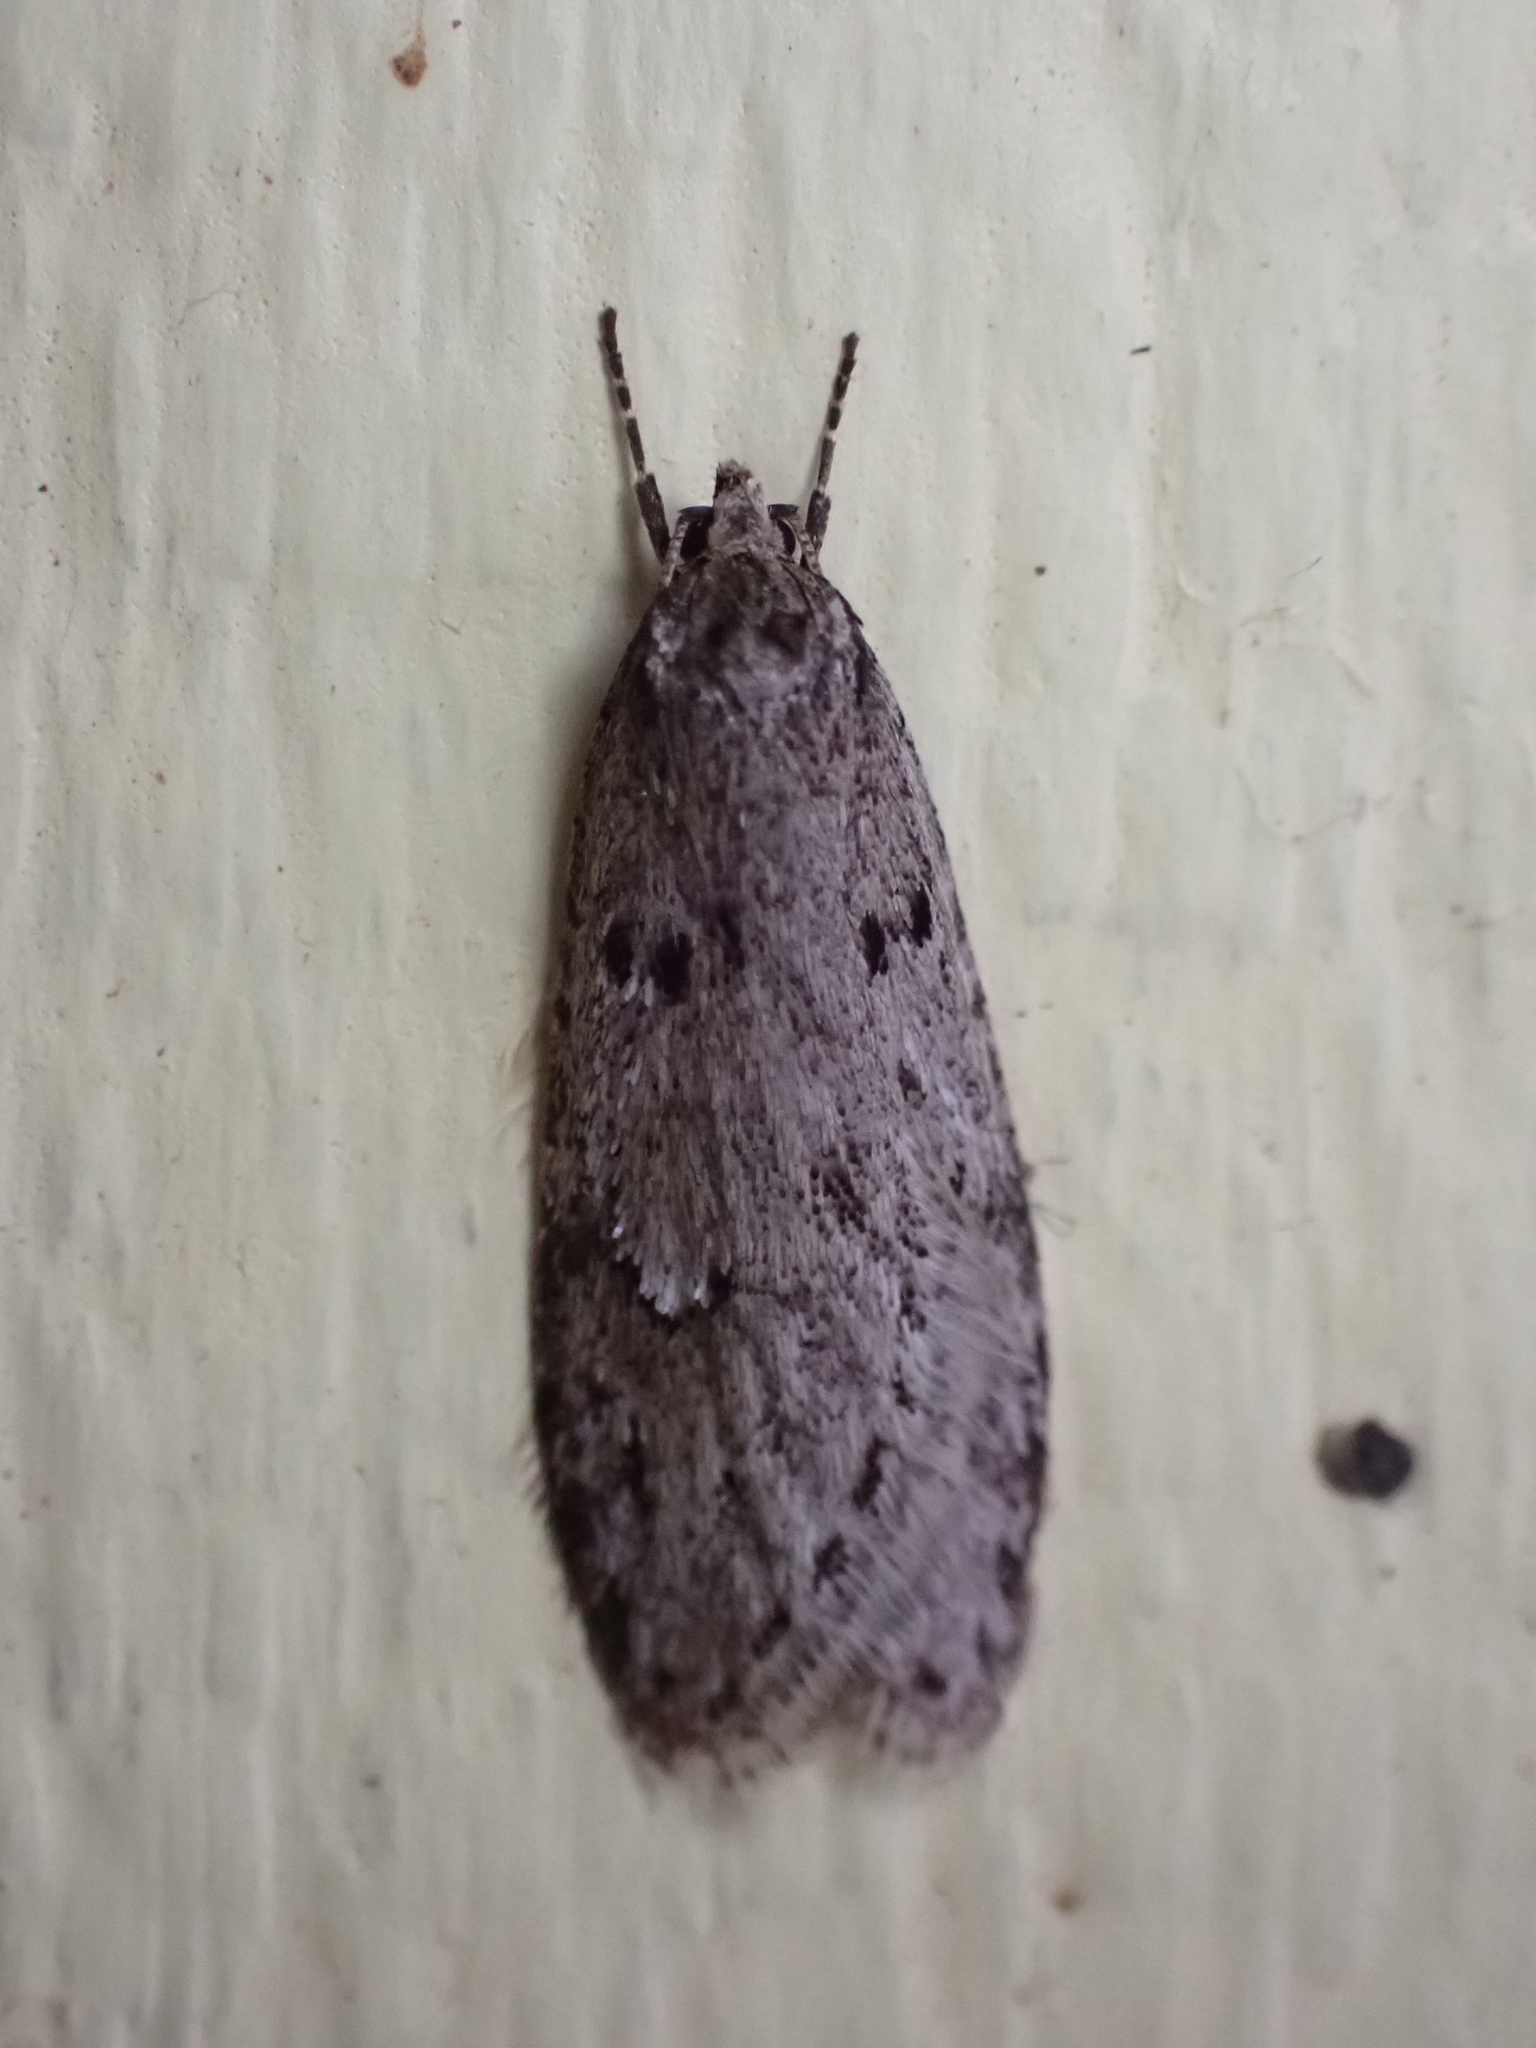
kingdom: Animalia
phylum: Arthropoda
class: Insecta
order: Lepidoptera
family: Depressariidae
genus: Semioscopis
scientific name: Semioscopis megamicrella
